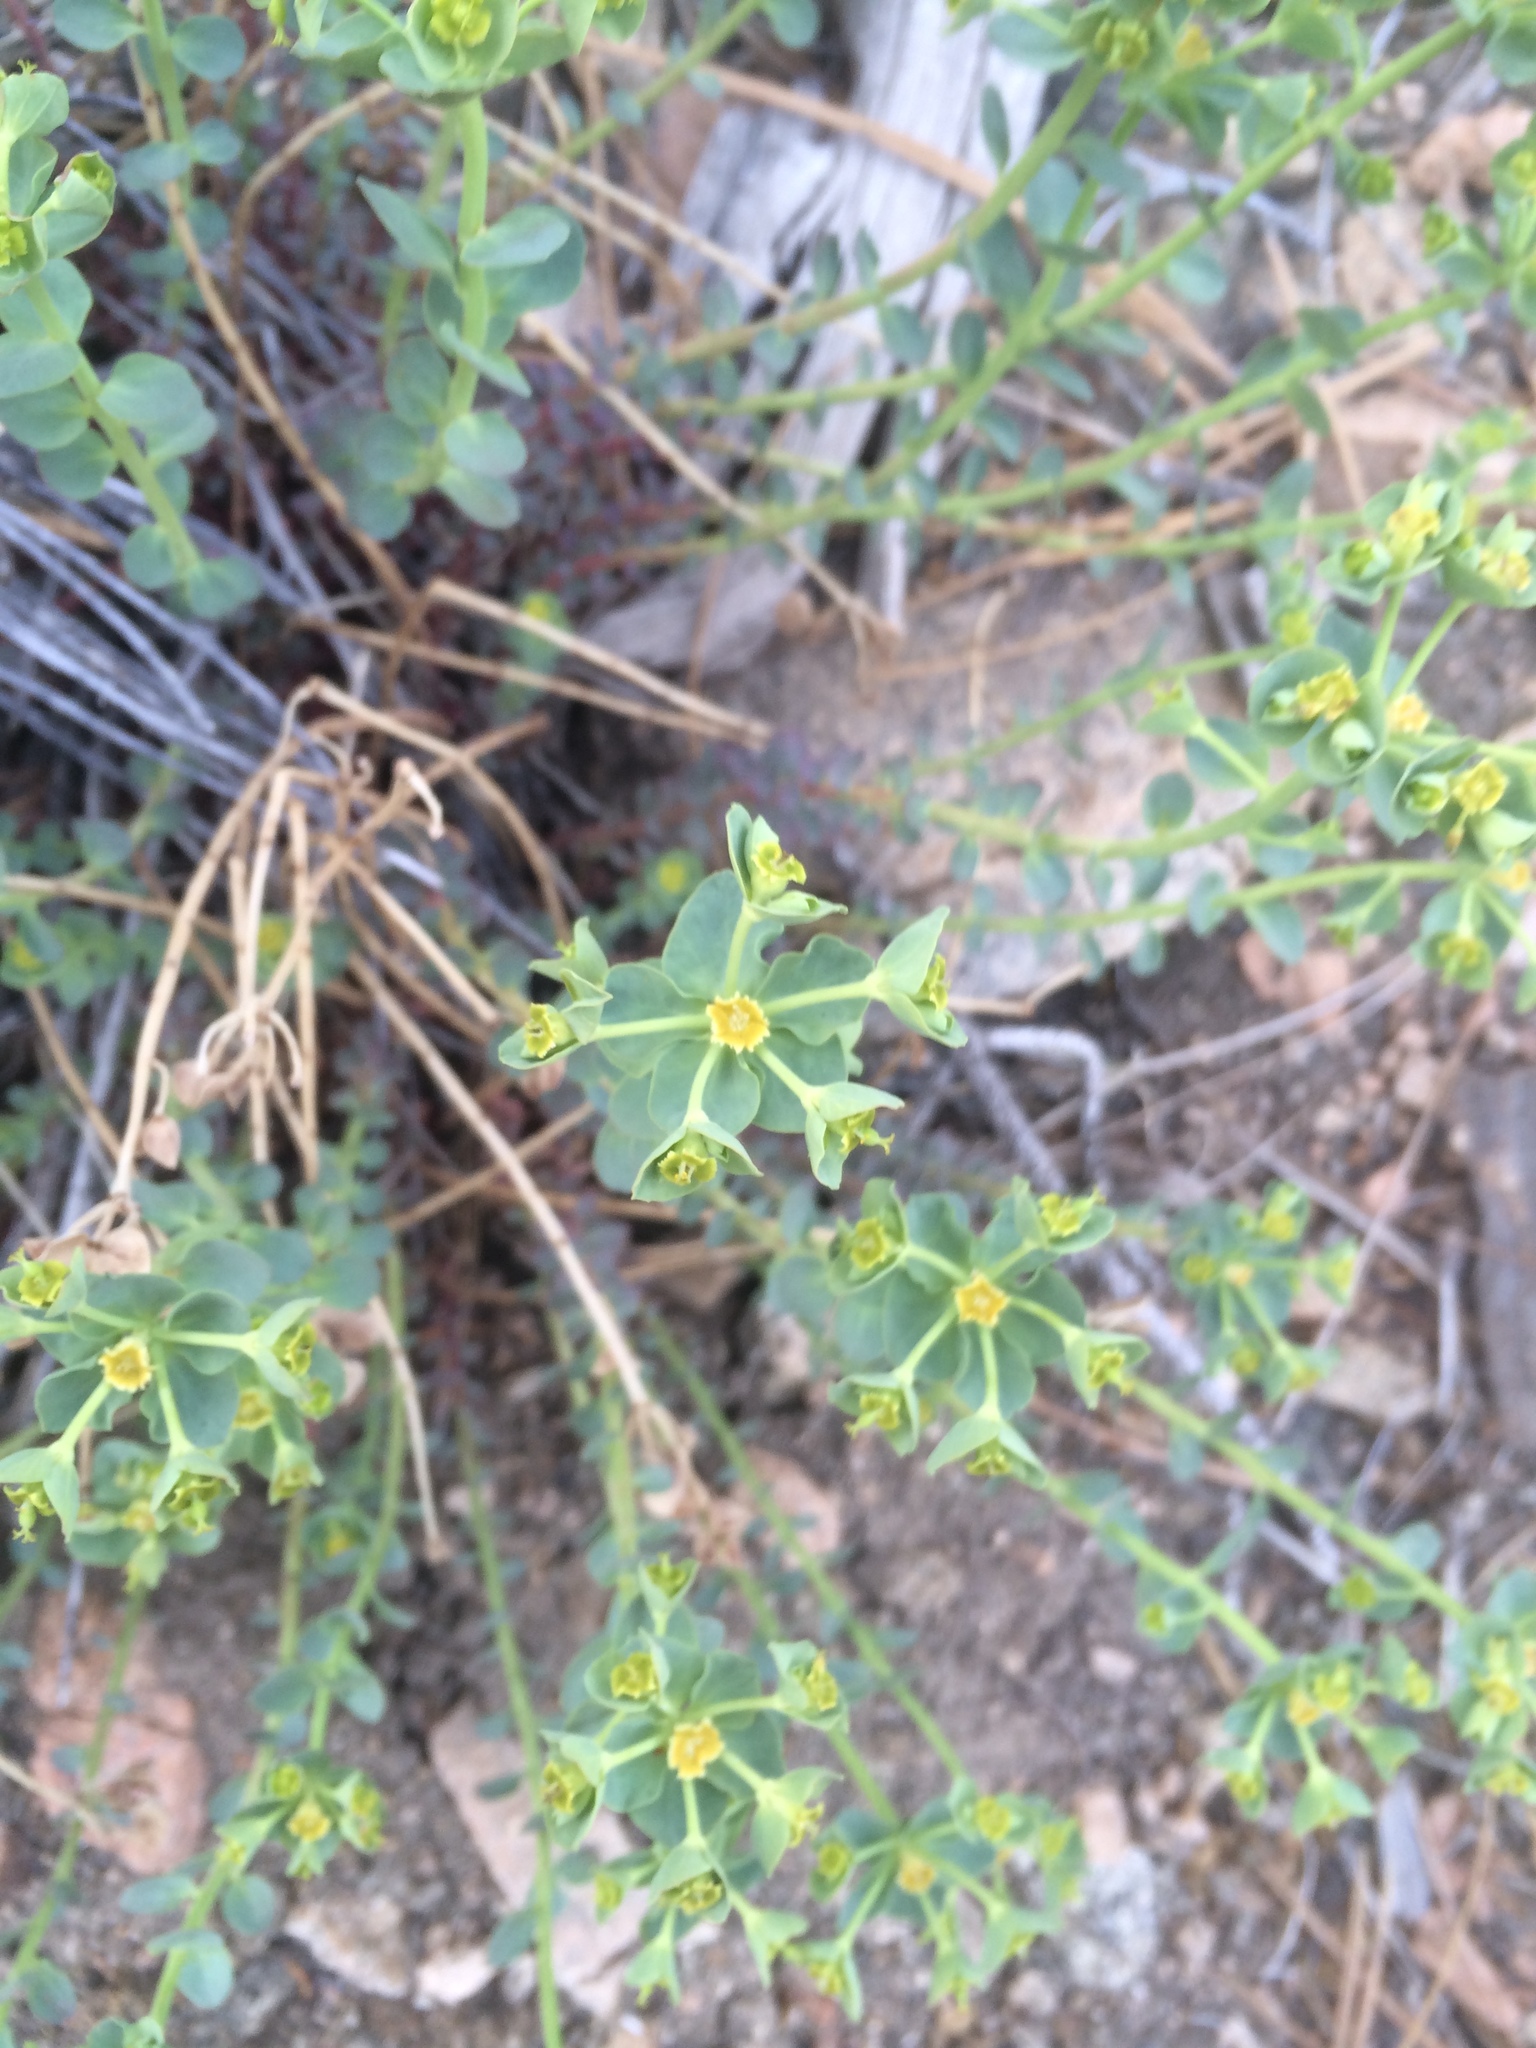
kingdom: Plantae
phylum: Tracheophyta
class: Magnoliopsida
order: Malpighiales
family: Euphorbiaceae
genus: Euphorbia
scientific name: Euphorbia lurida
